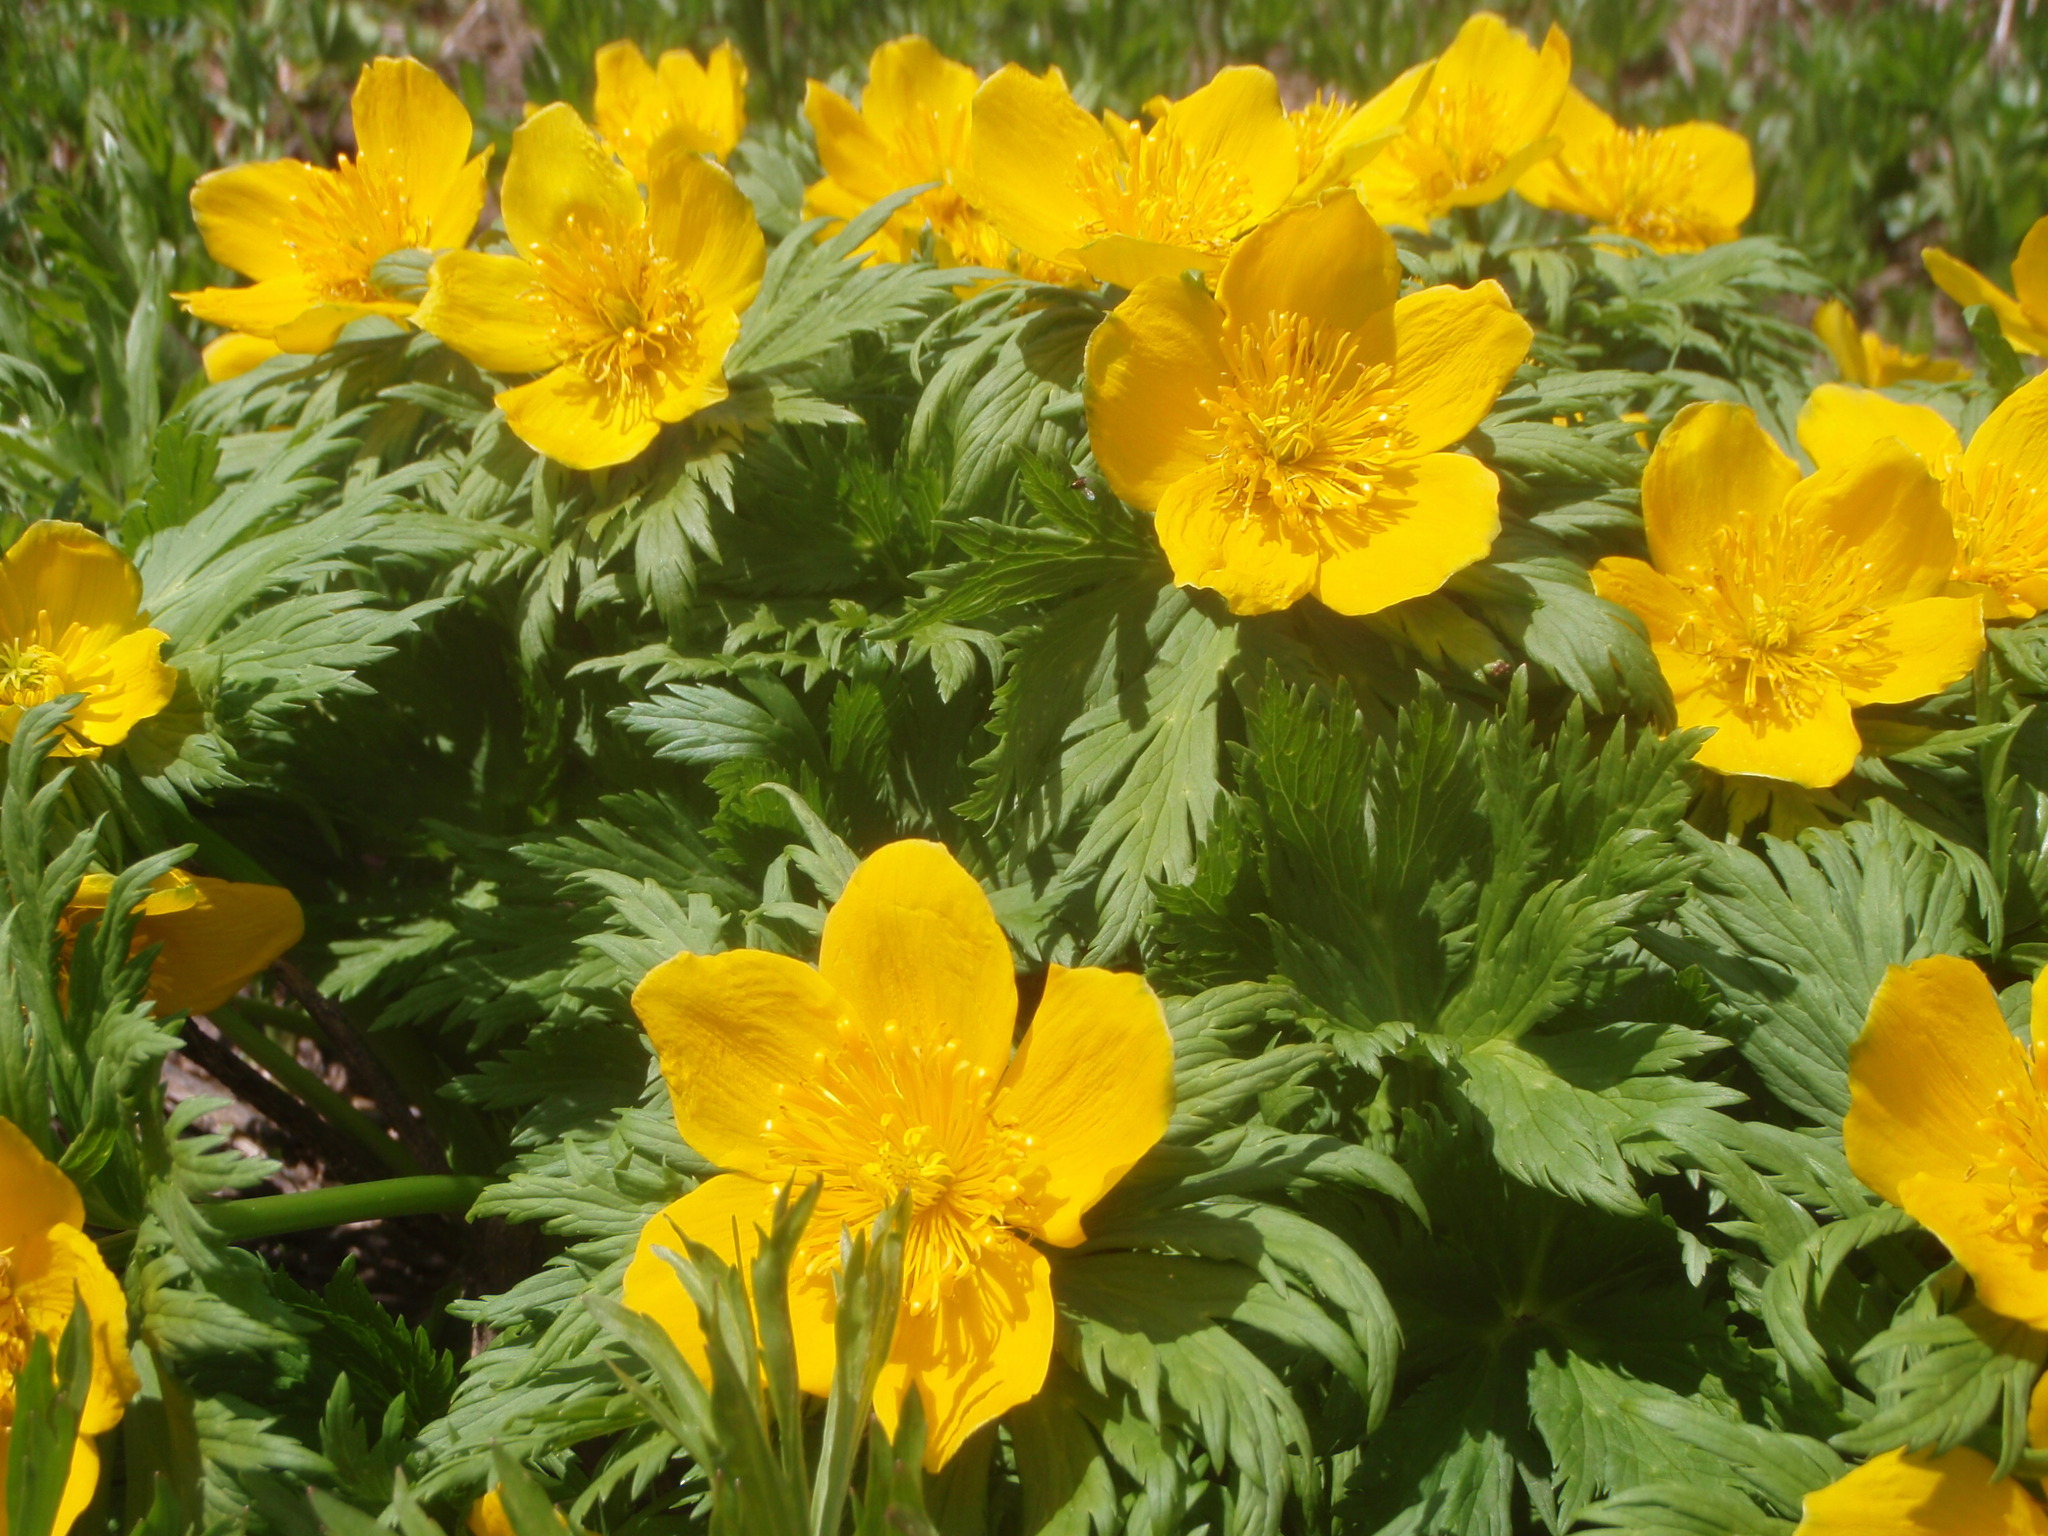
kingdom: Plantae
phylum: Tracheophyta
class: Magnoliopsida
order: Ranunculales
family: Ranunculaceae
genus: Trollius
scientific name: Trollius ranunculinus
